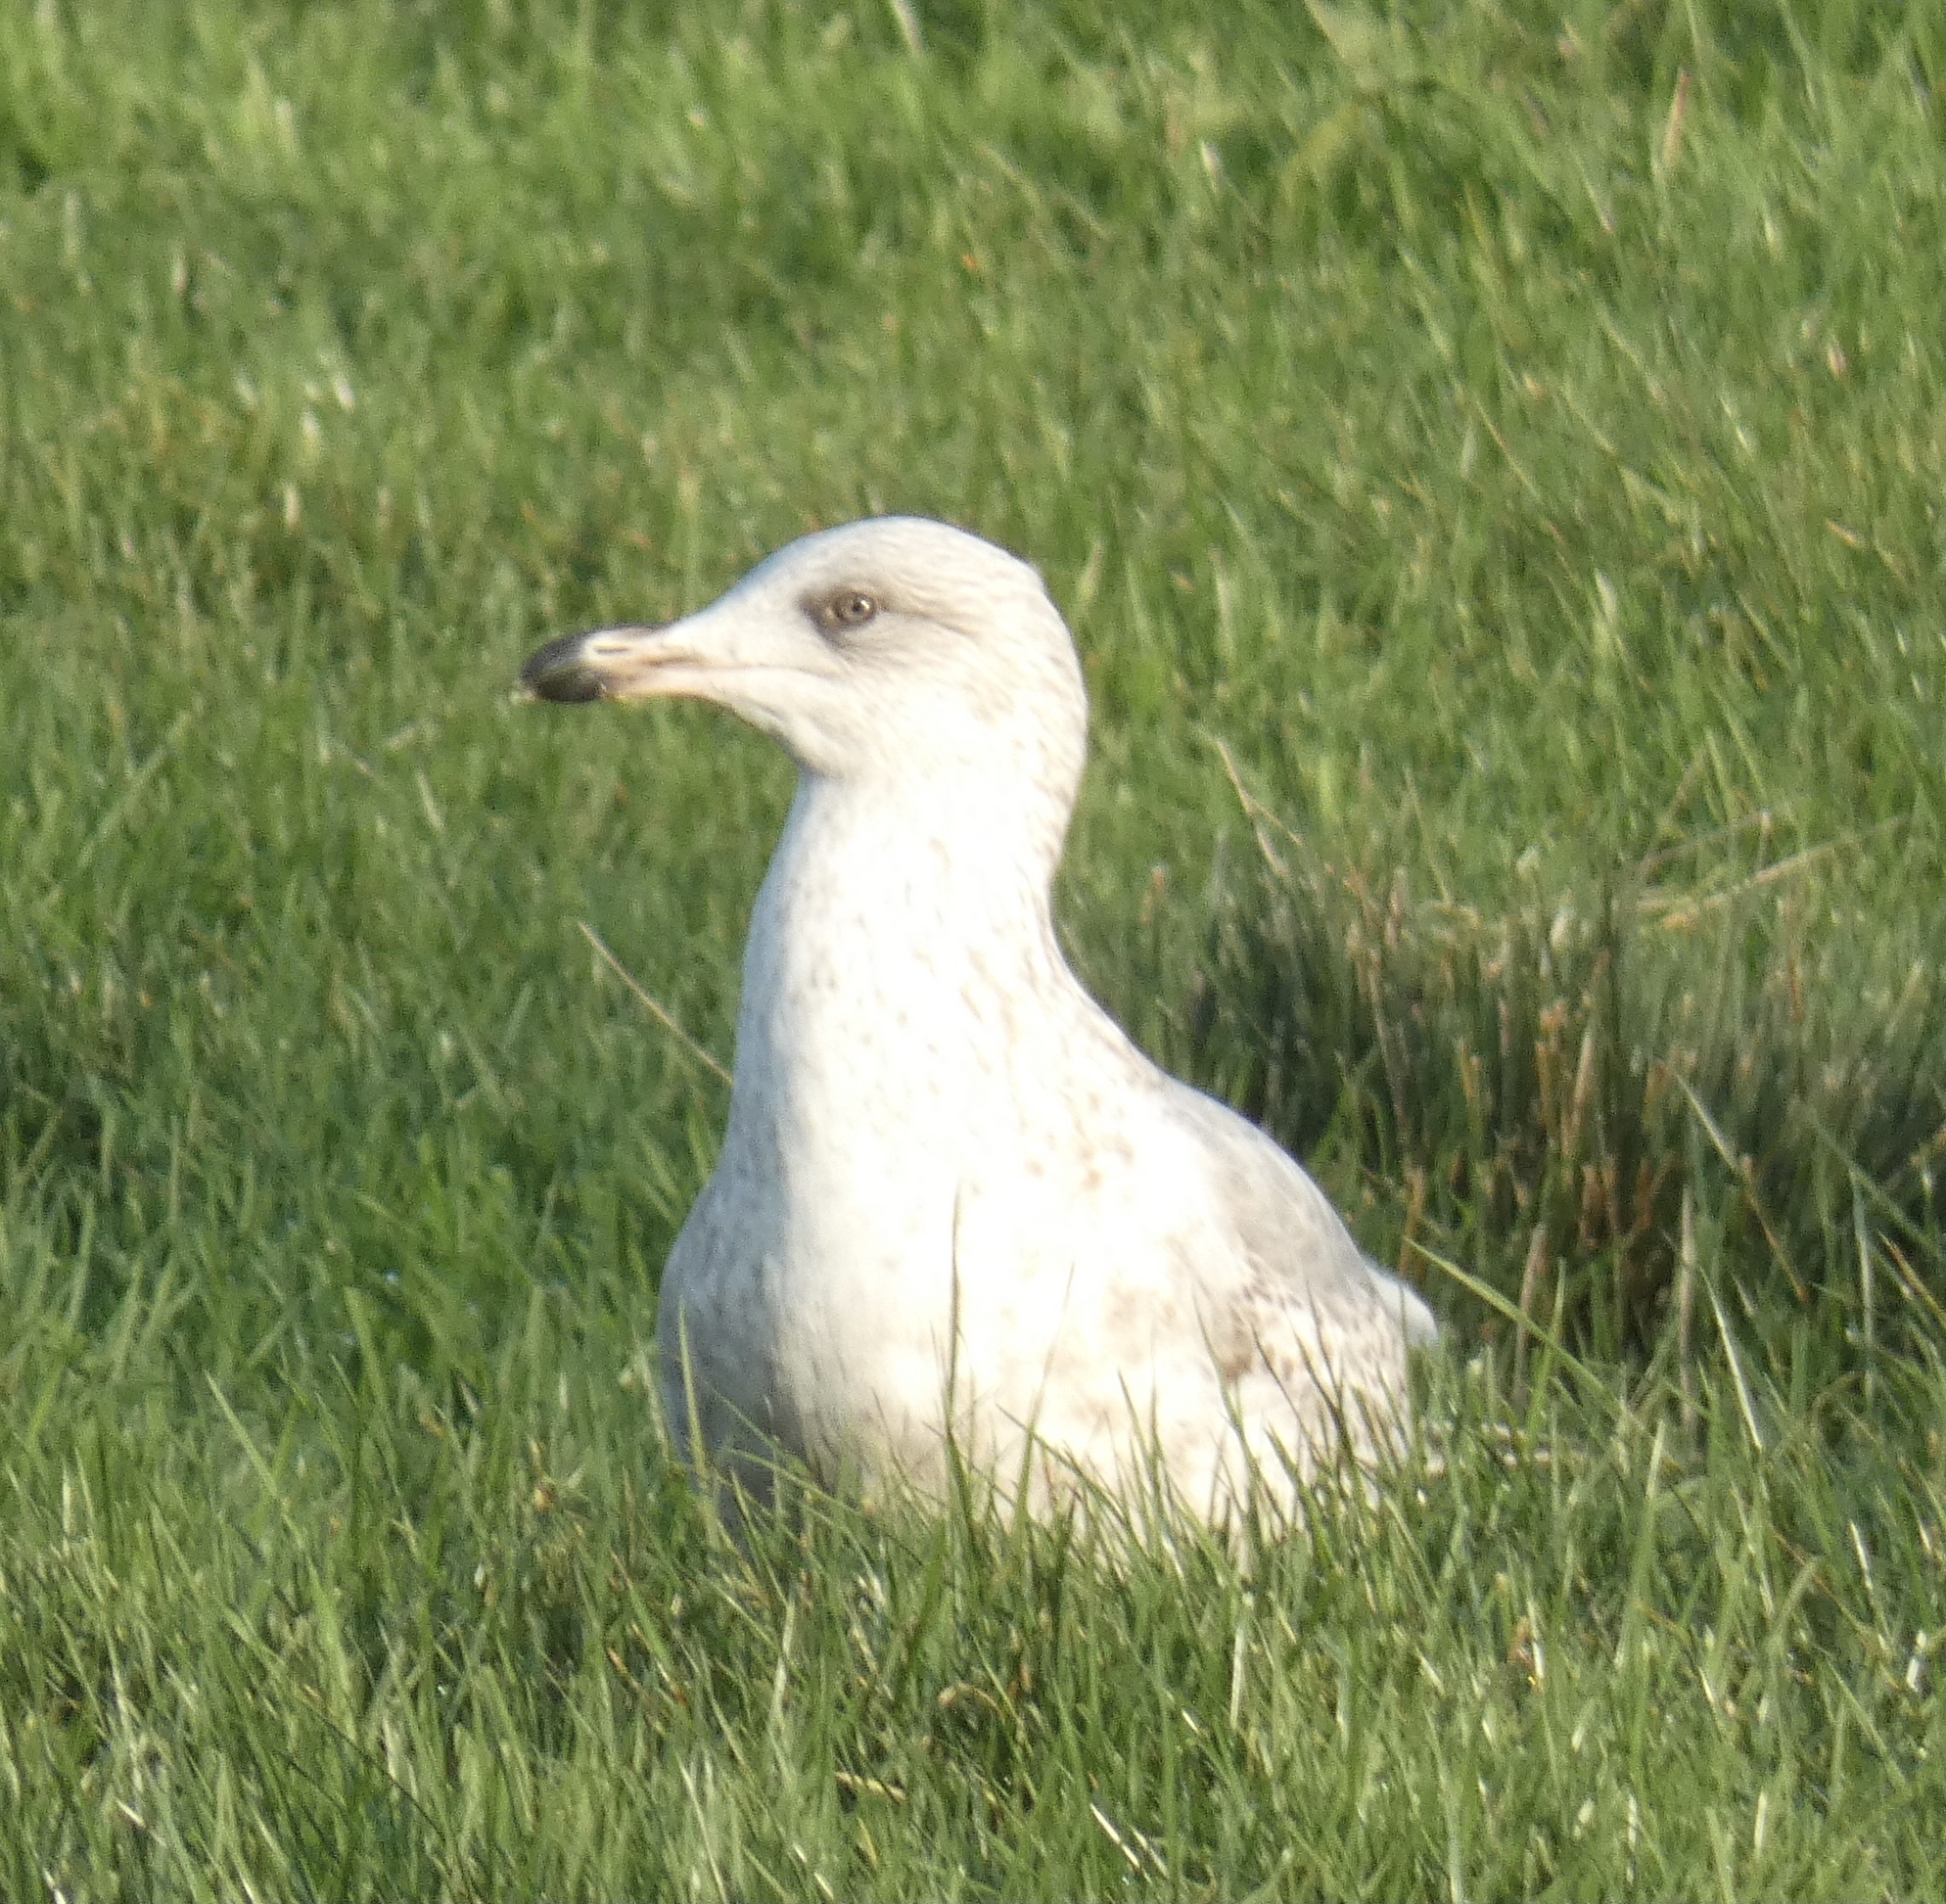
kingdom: Animalia
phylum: Chordata
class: Aves
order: Charadriiformes
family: Laridae
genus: Larus
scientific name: Larus argentatus
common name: Herring gull
